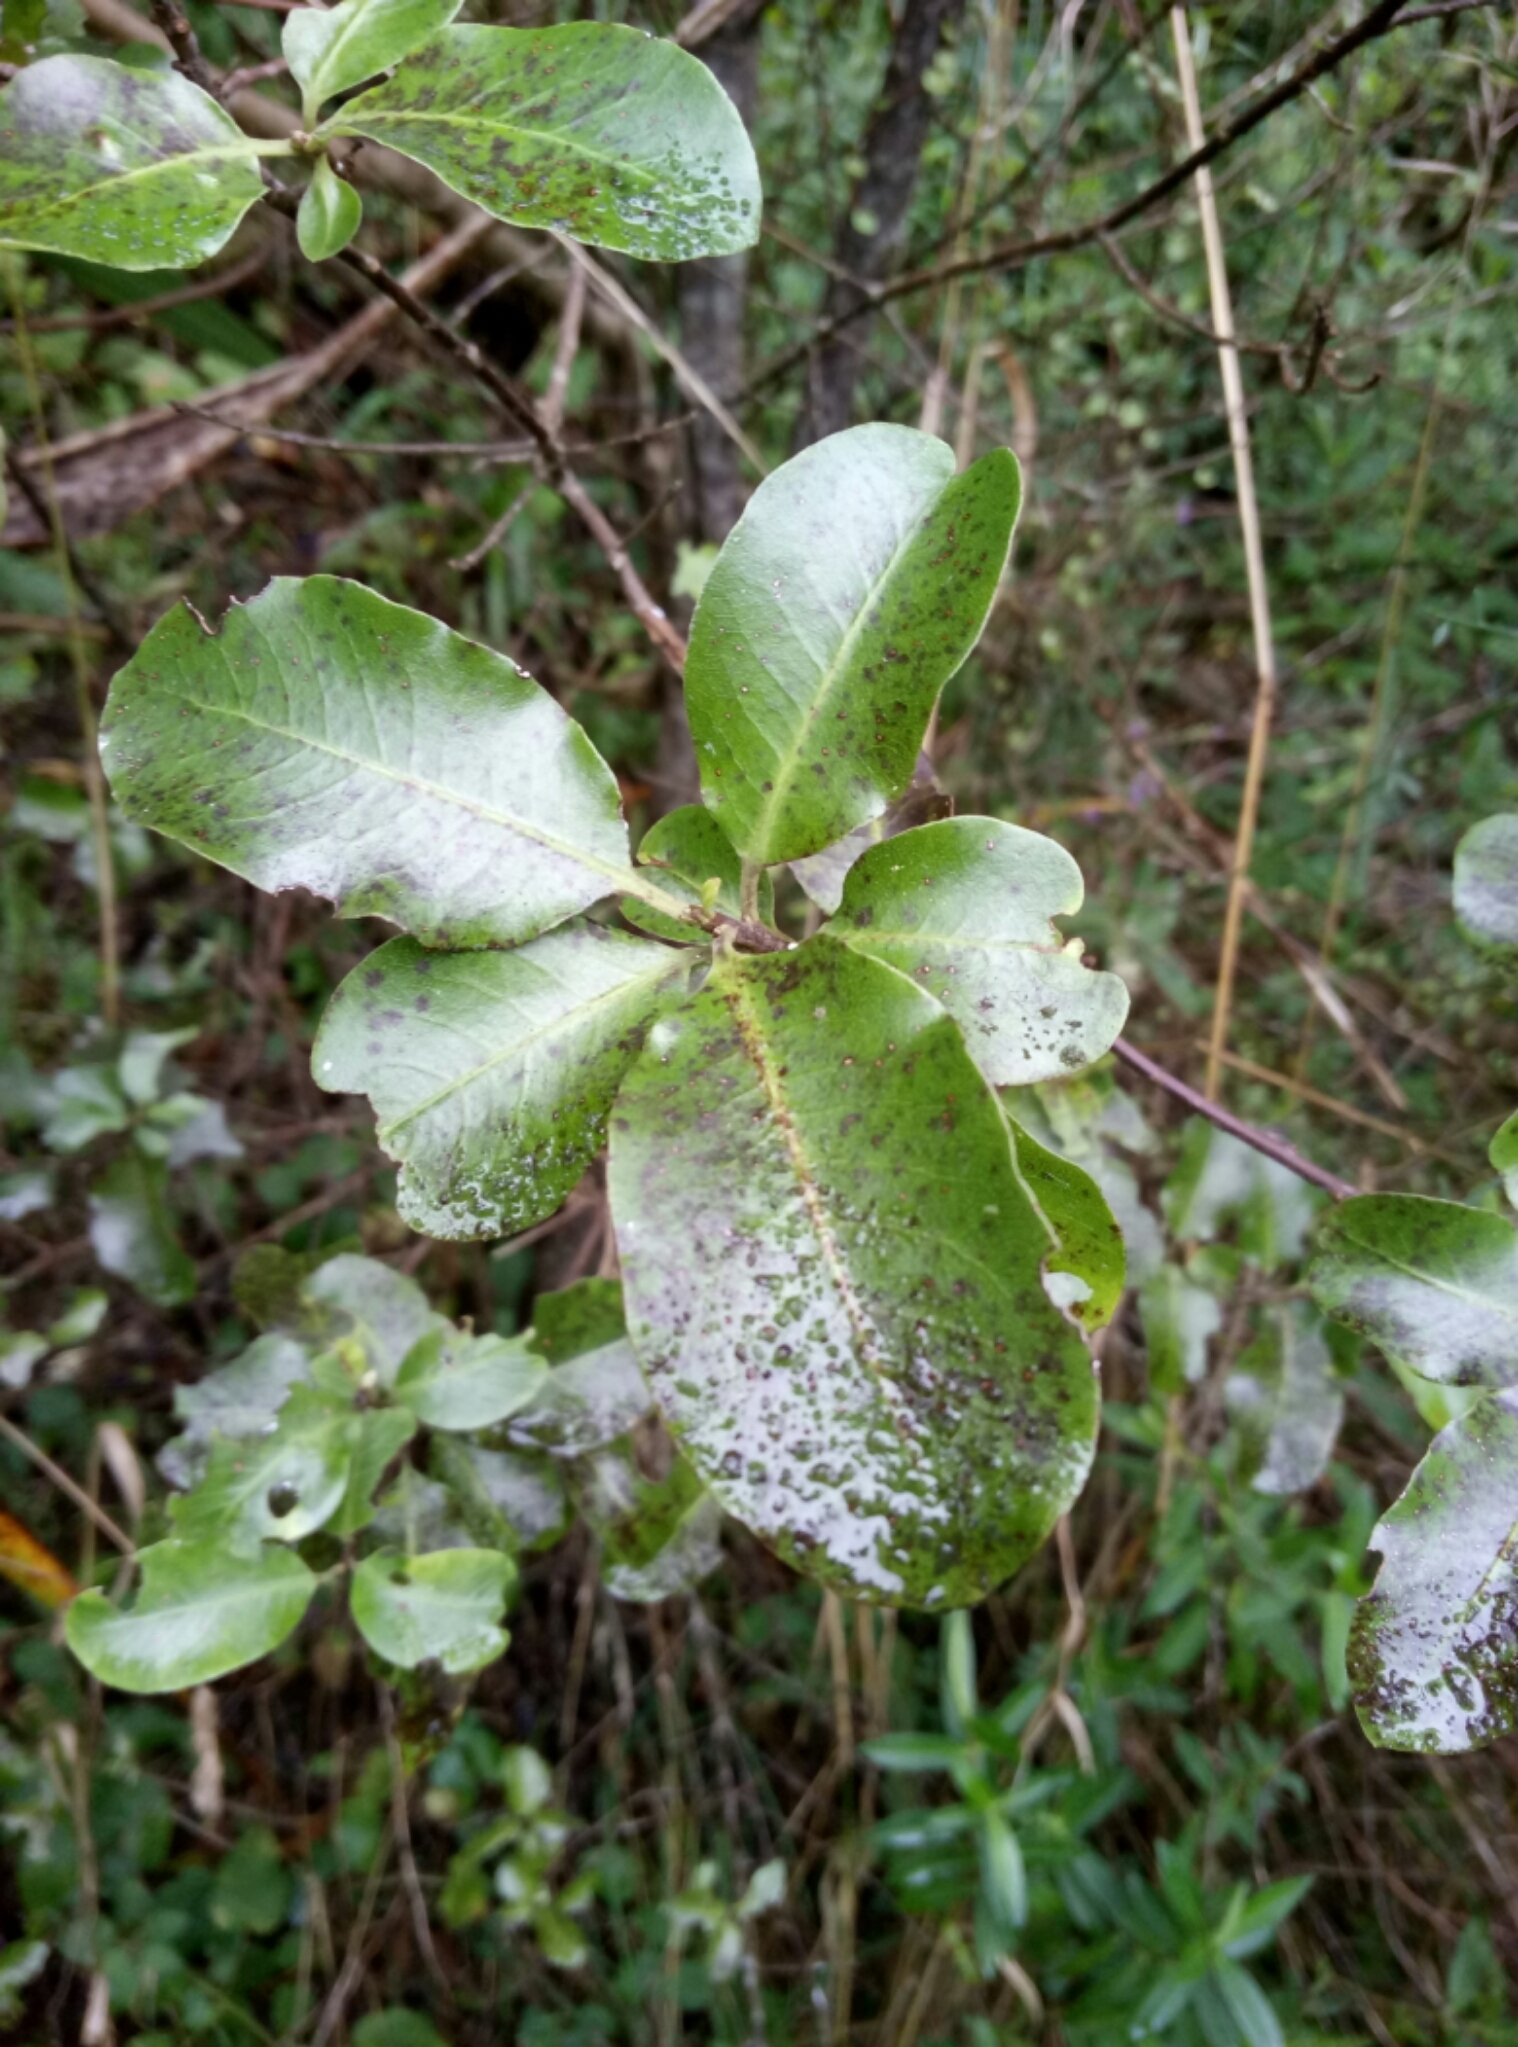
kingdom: Plantae
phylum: Tracheophyta
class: Magnoliopsida
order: Apiales
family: Pittosporaceae
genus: Pittosporum
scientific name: Pittosporum tenuifolium
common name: Kohuhu
